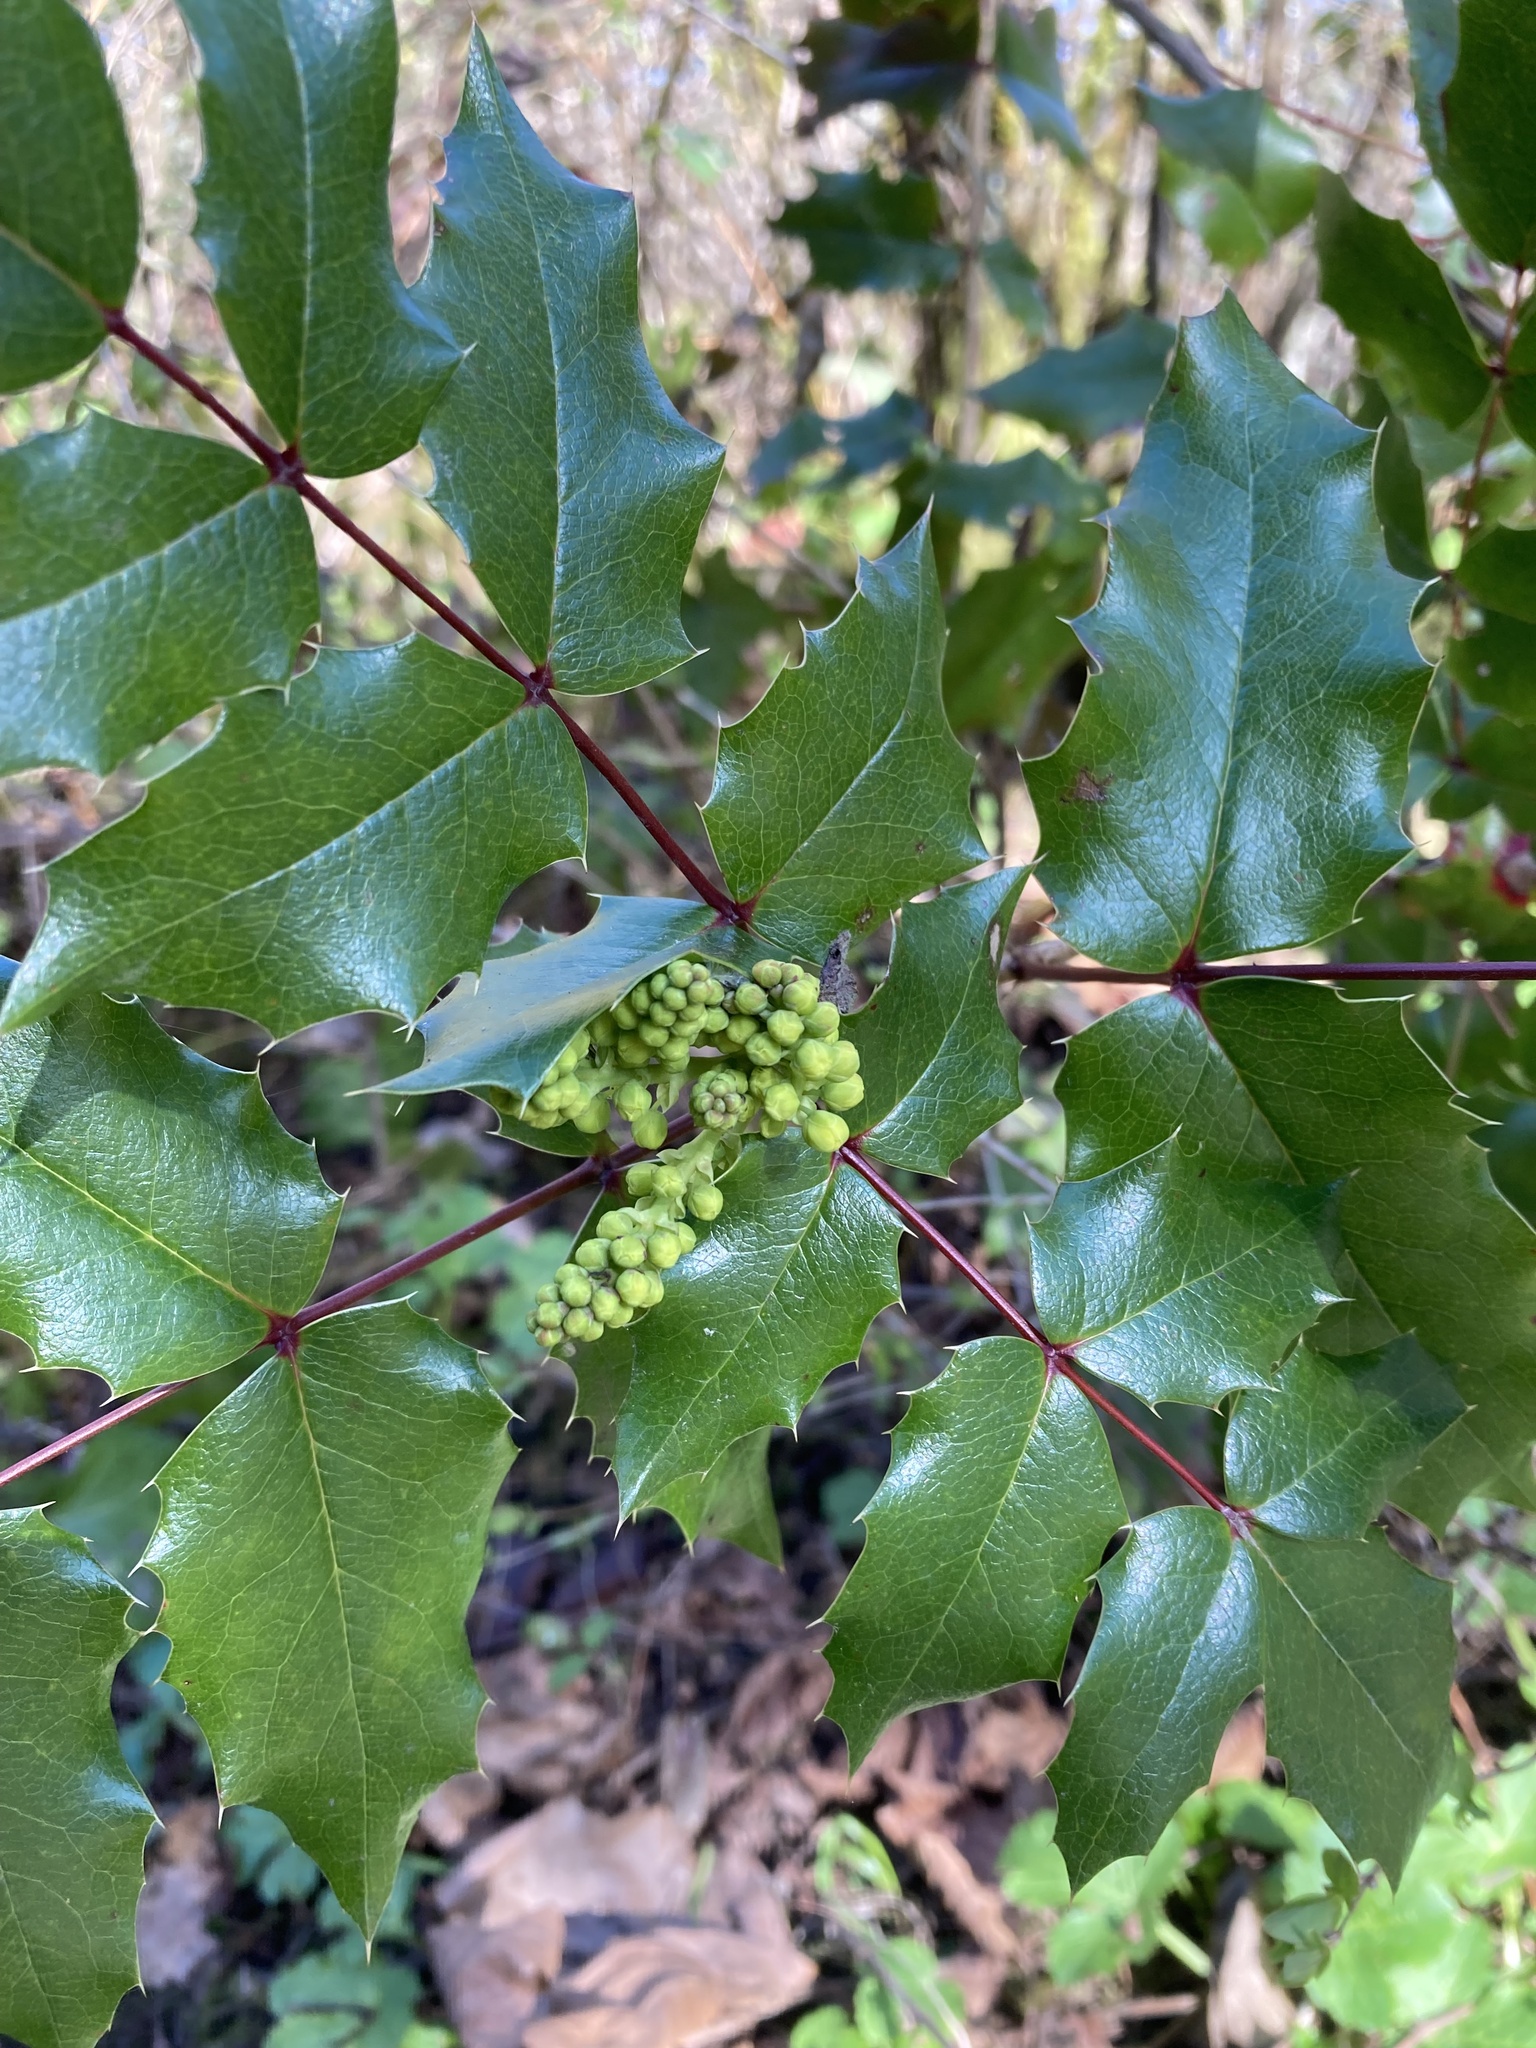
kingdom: Plantae
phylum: Tracheophyta
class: Magnoliopsida
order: Ranunculales
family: Berberidaceae
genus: Mahonia
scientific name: Mahonia aquifolium
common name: Oregon-grape
